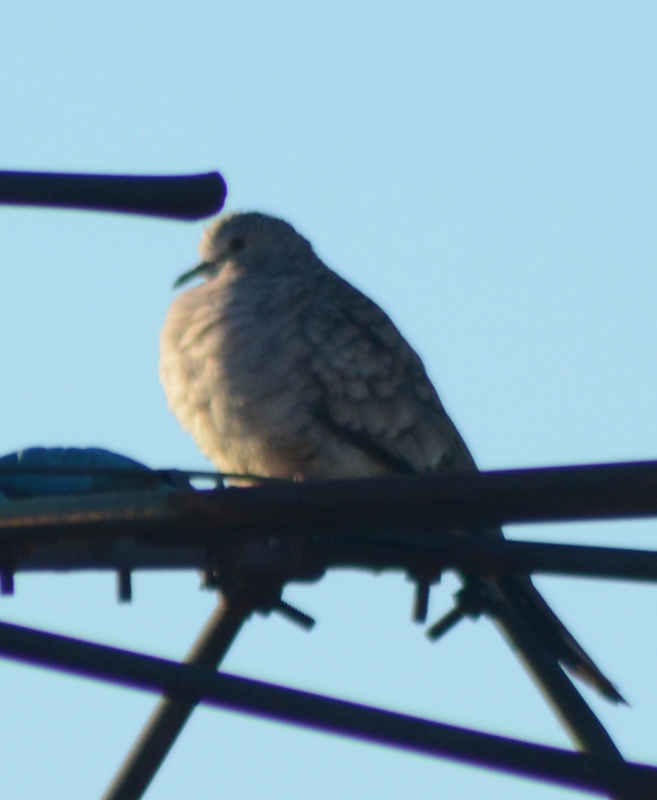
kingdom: Animalia
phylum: Chordata
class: Aves
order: Columbiformes
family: Columbidae
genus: Columbina
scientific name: Columbina inca
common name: Inca dove
